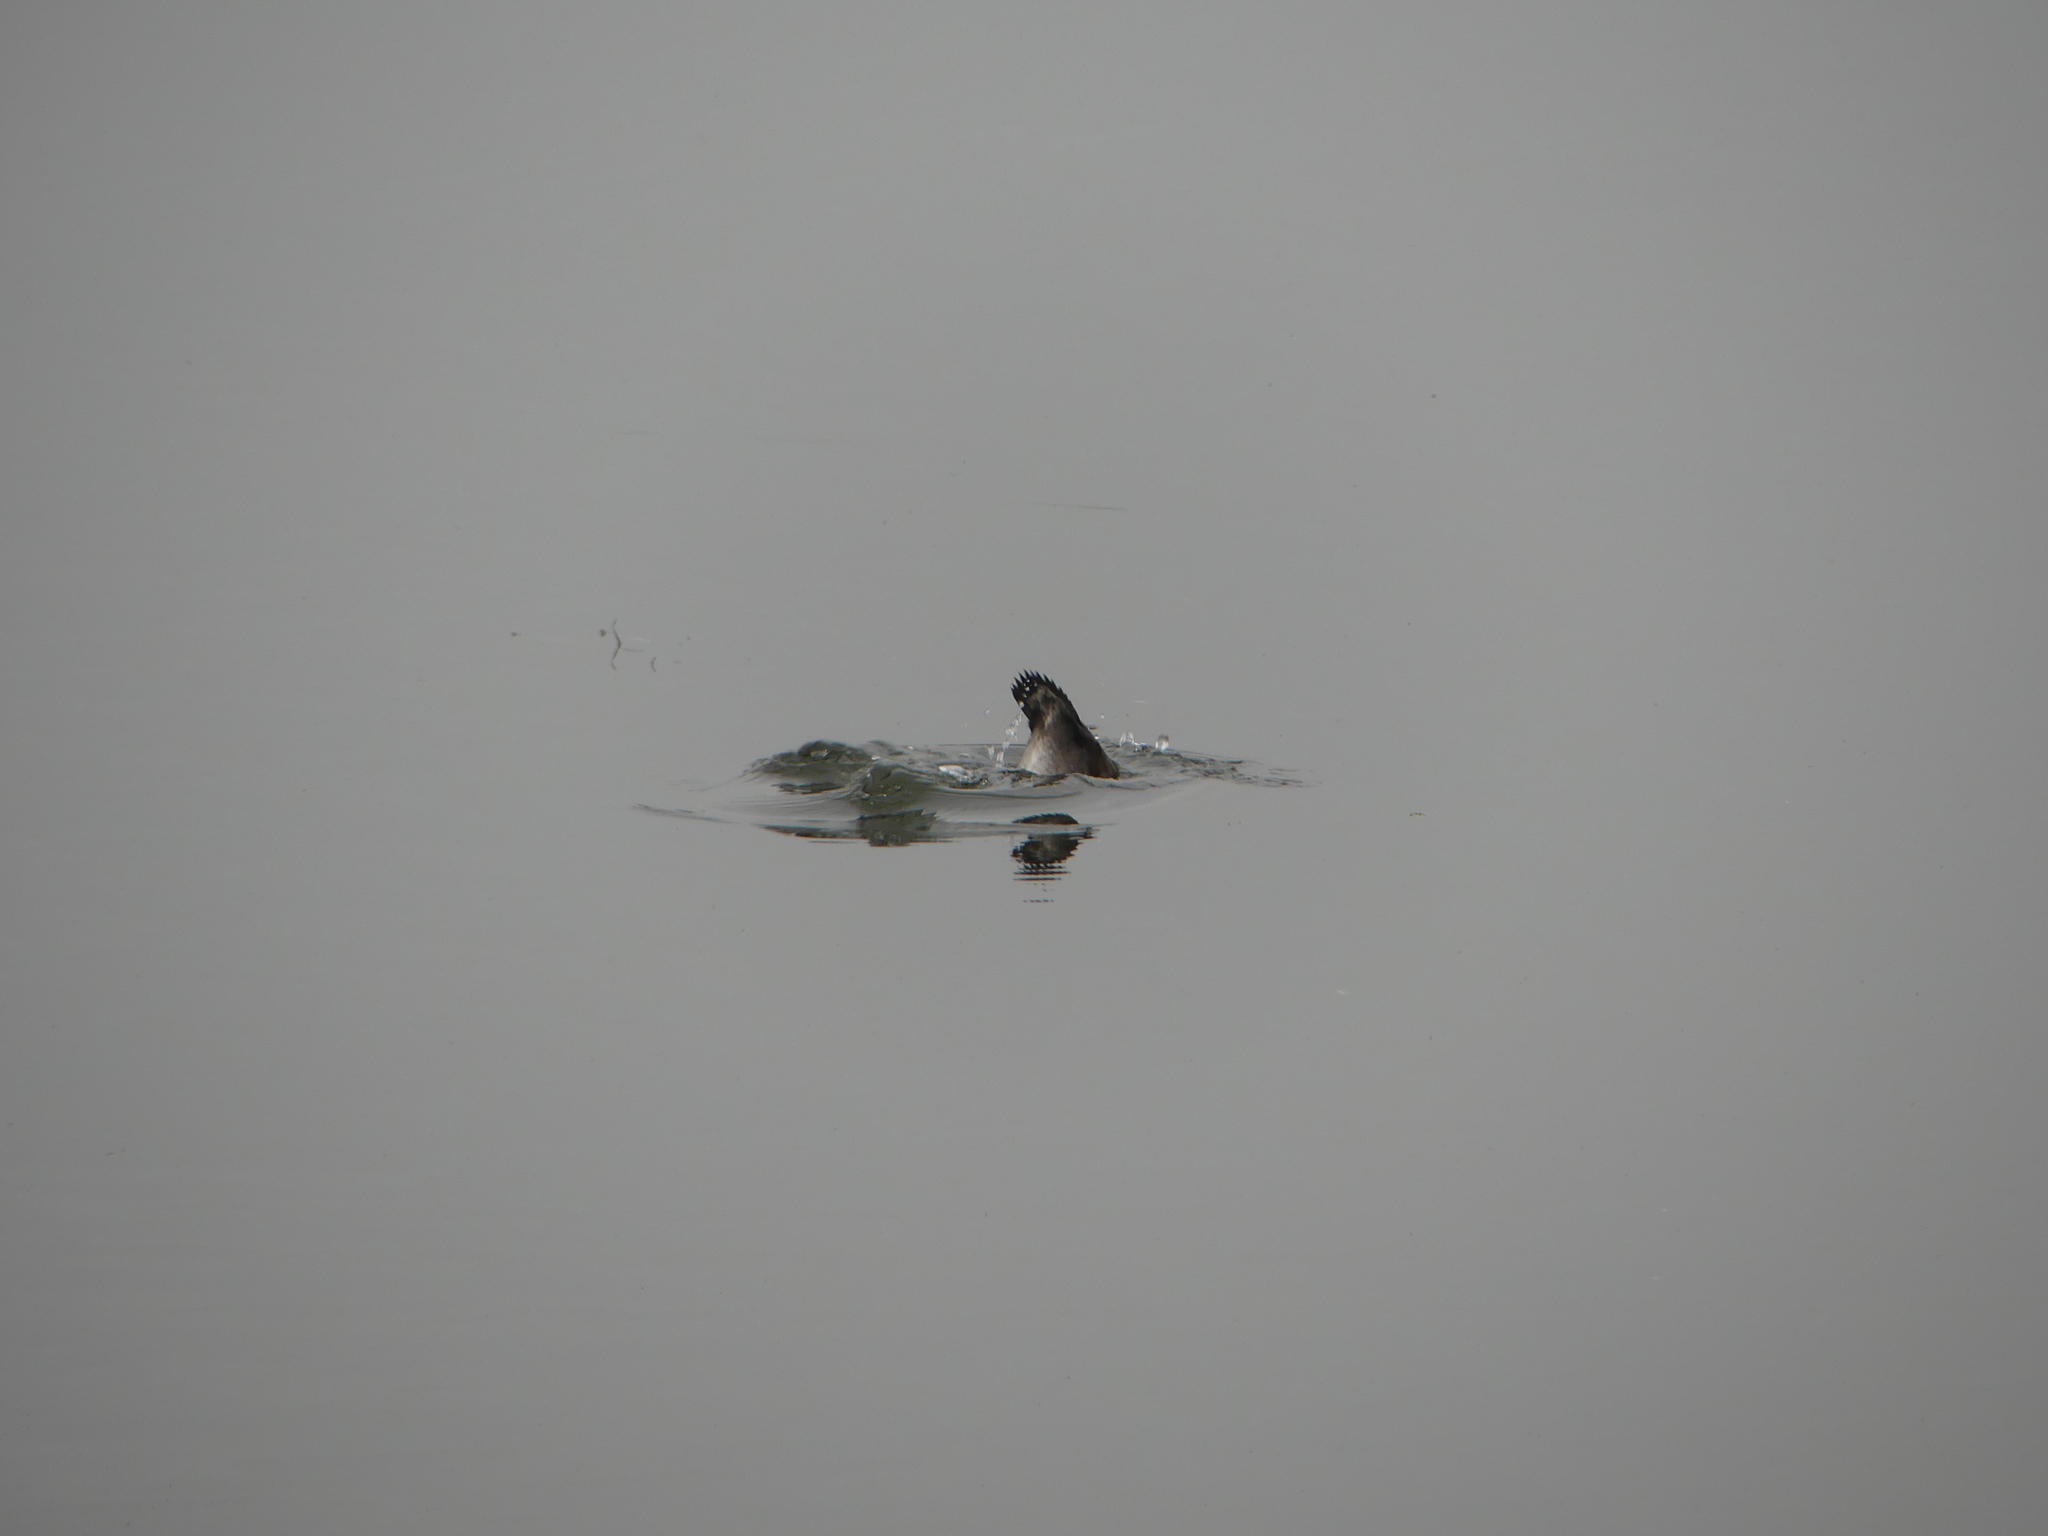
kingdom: Animalia
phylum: Chordata
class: Aves
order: Anseriformes
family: Anatidae
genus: Aythya
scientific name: Aythya fuligula
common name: Tufted duck
